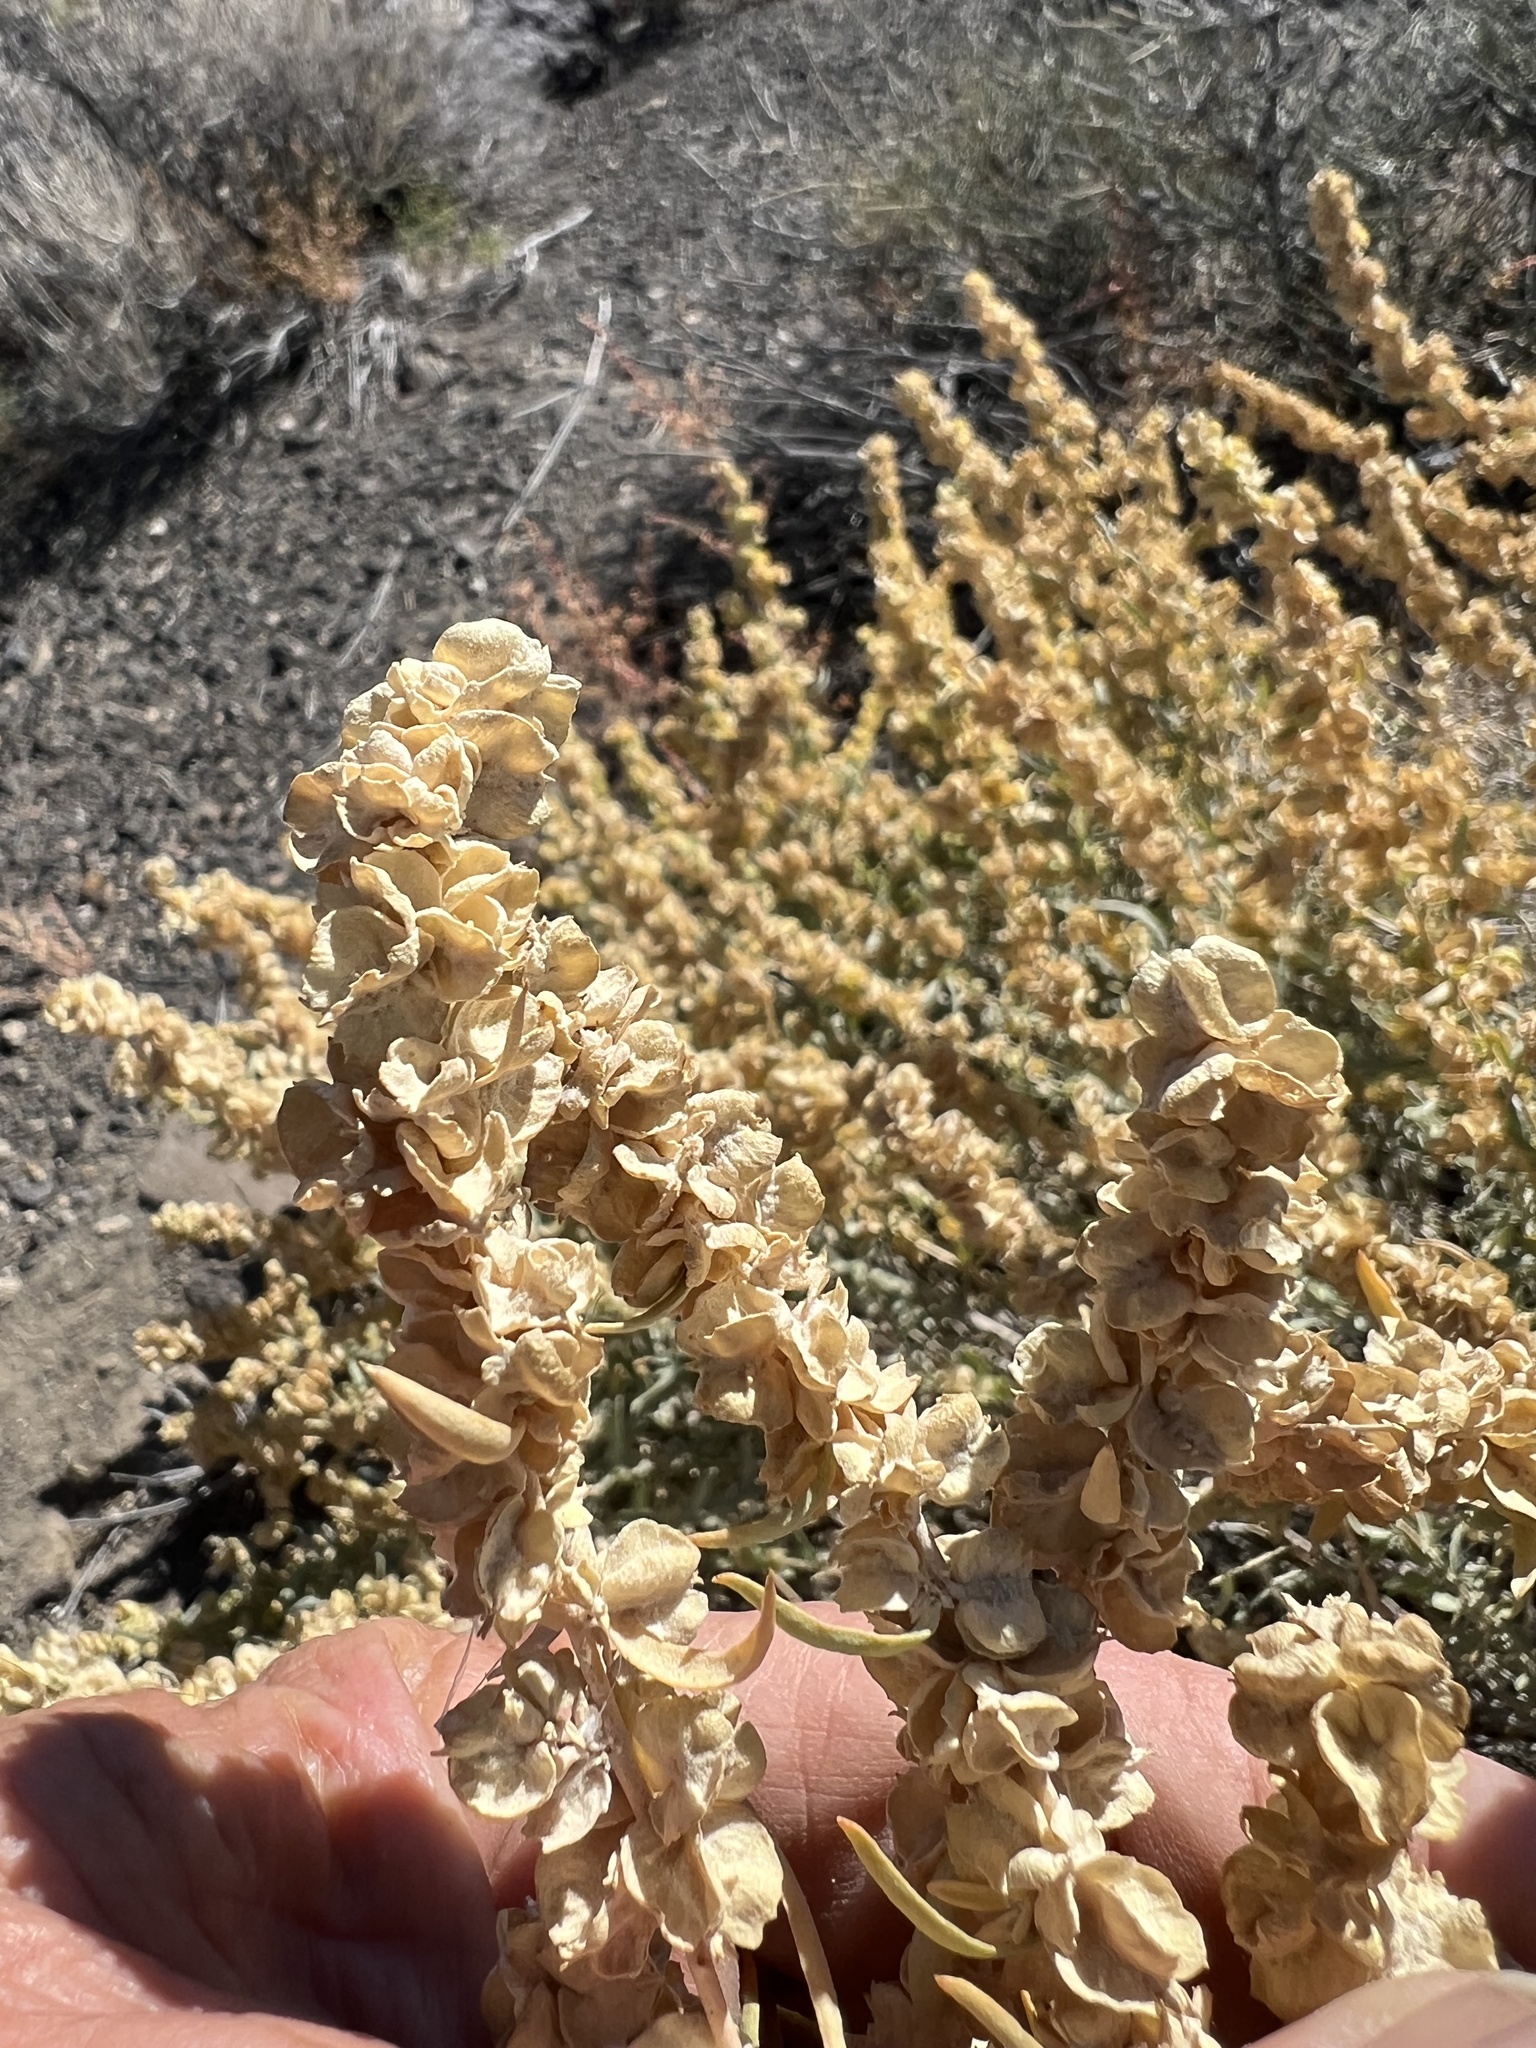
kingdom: Plantae
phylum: Tracheophyta
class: Magnoliopsida
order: Caryophyllales
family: Amaranthaceae
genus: Atriplex
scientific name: Atriplex canescens
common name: Four-wing saltbush
